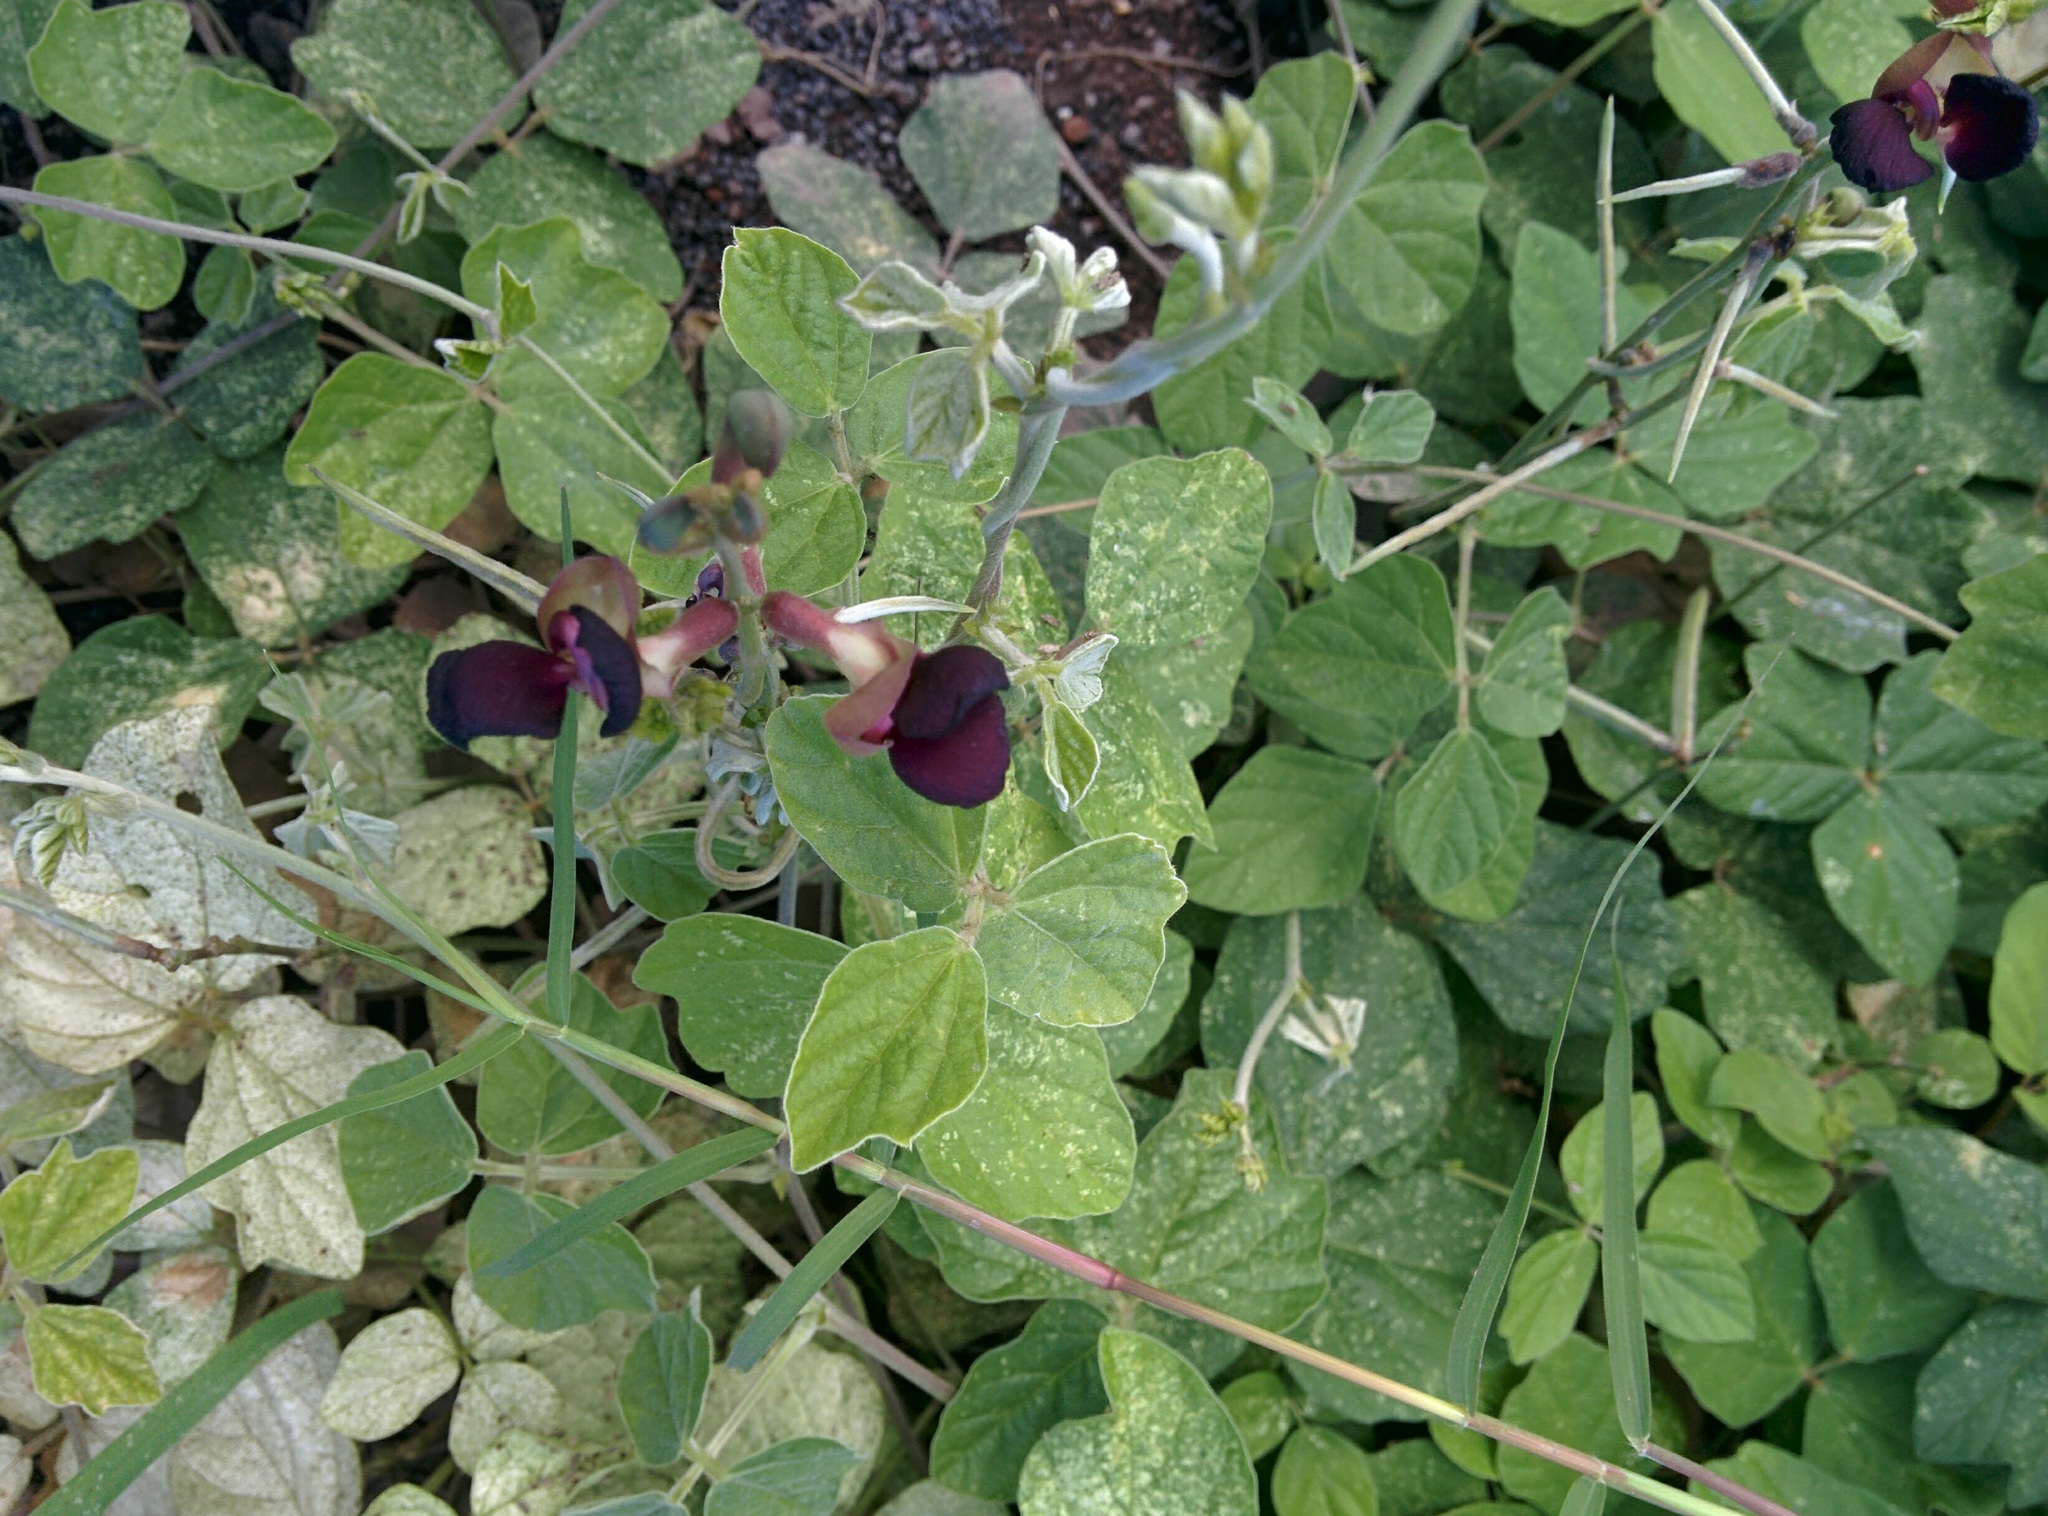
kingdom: Plantae
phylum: Tracheophyta
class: Magnoliopsida
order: Fabales
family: Fabaceae
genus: Macroptilium
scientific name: Macroptilium atropurpureum
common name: Purple bushbean
